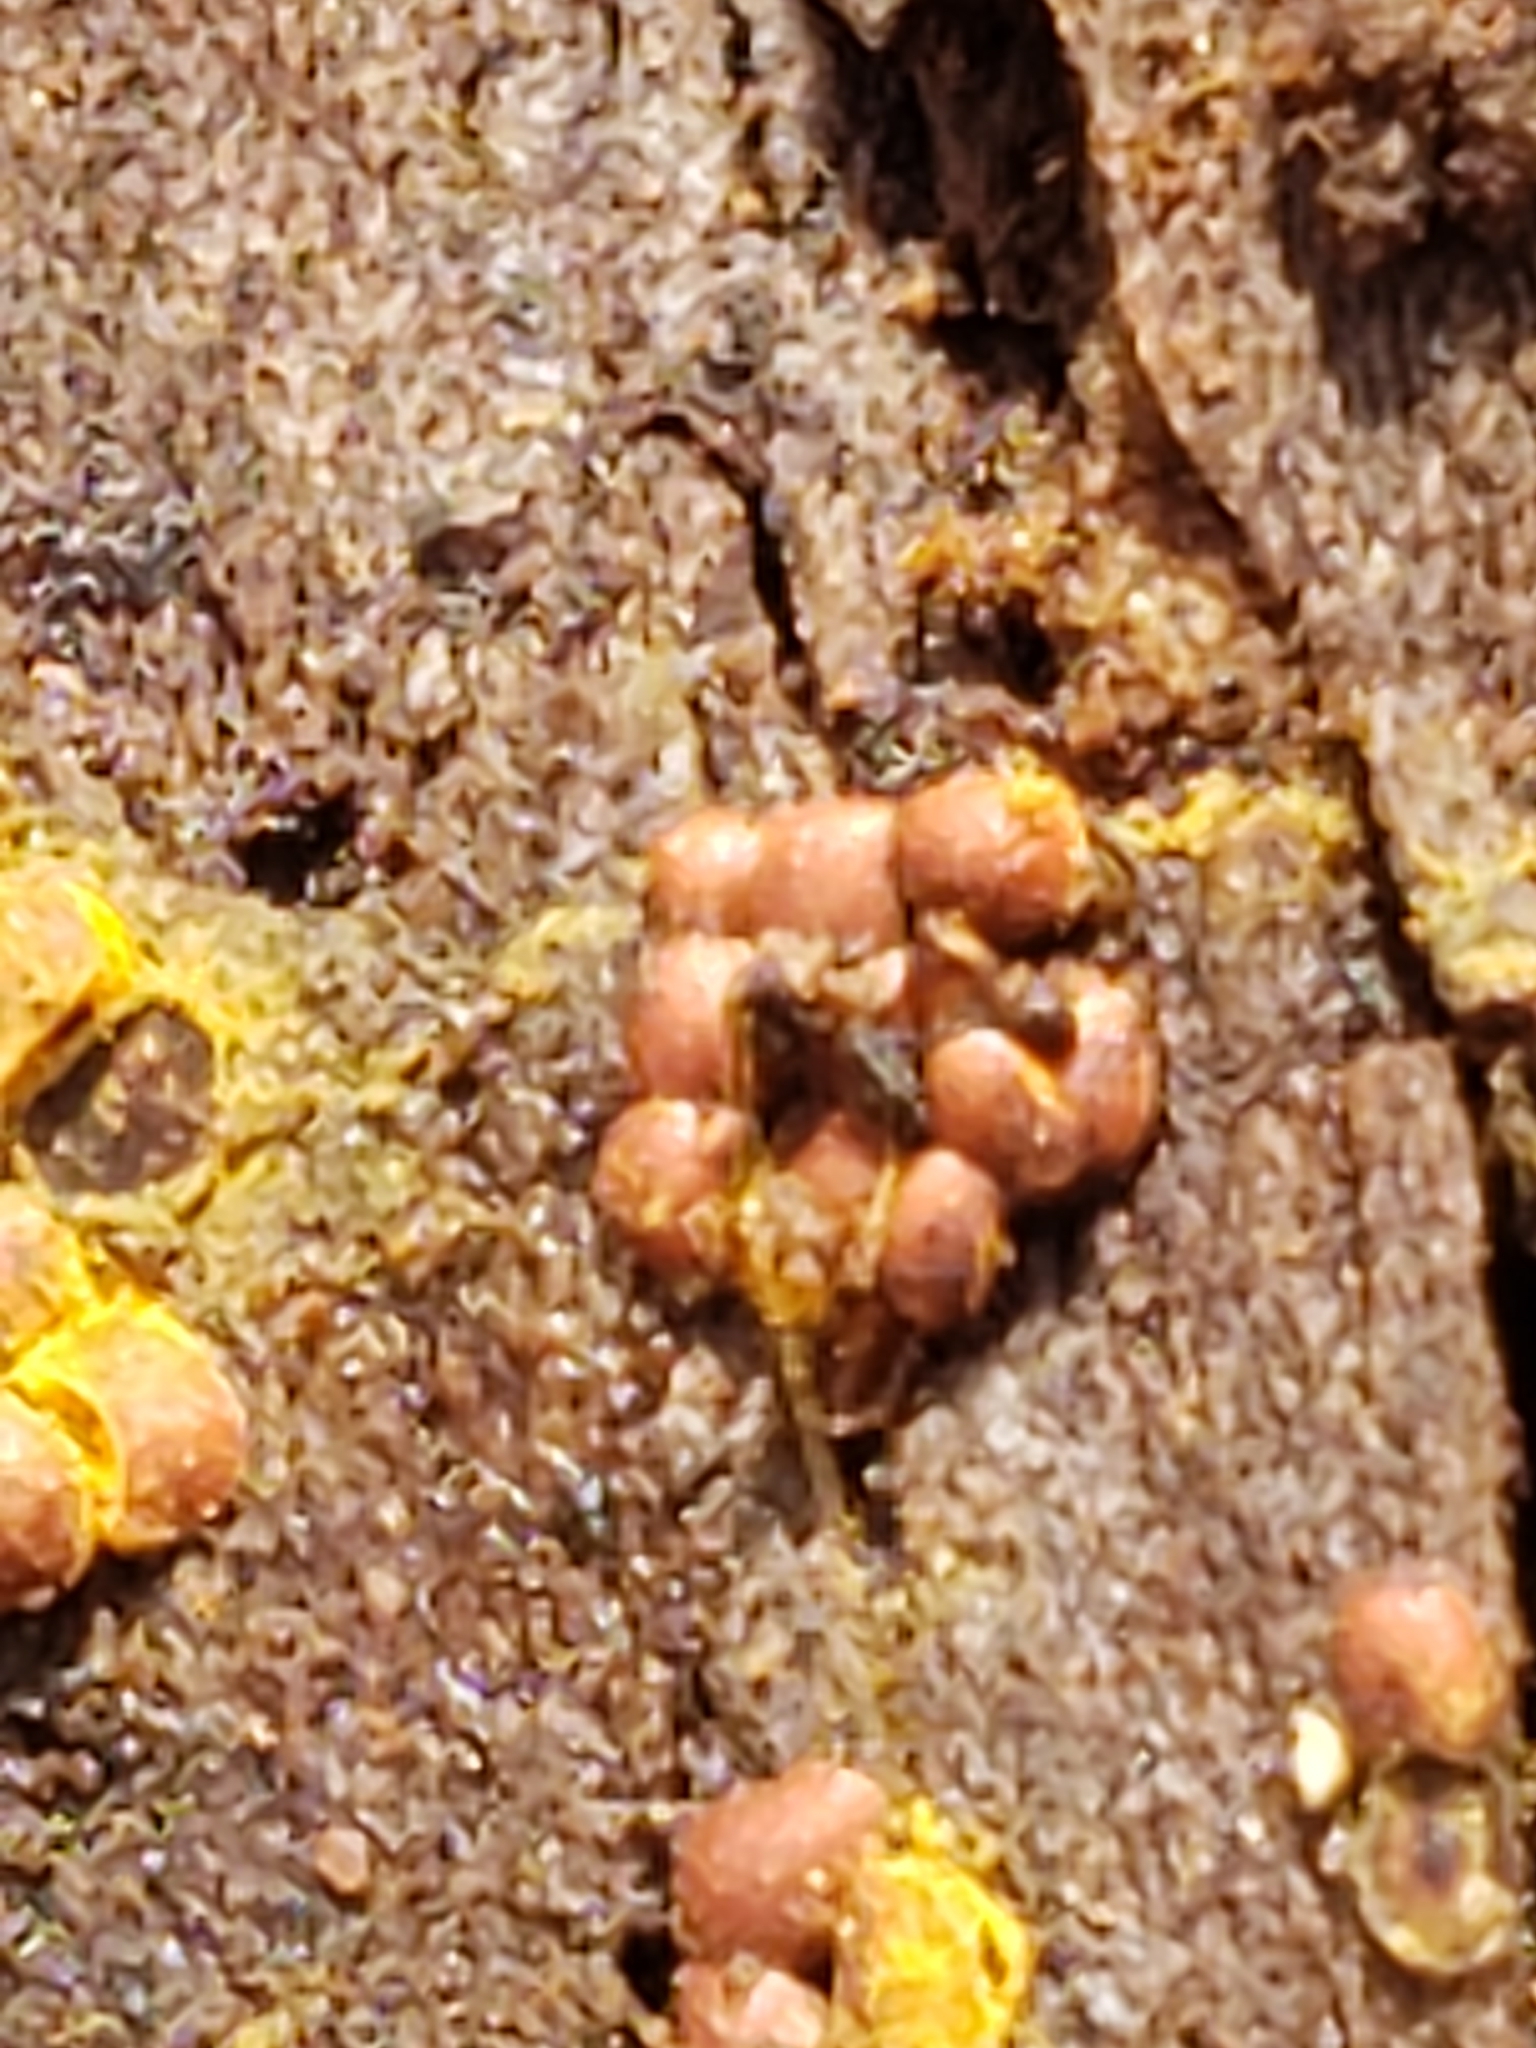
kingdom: Protozoa
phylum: Mycetozoa
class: Myxomycetes
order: Trichiales
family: Trichiaceae
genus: Perichaena
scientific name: Perichaena depressa
